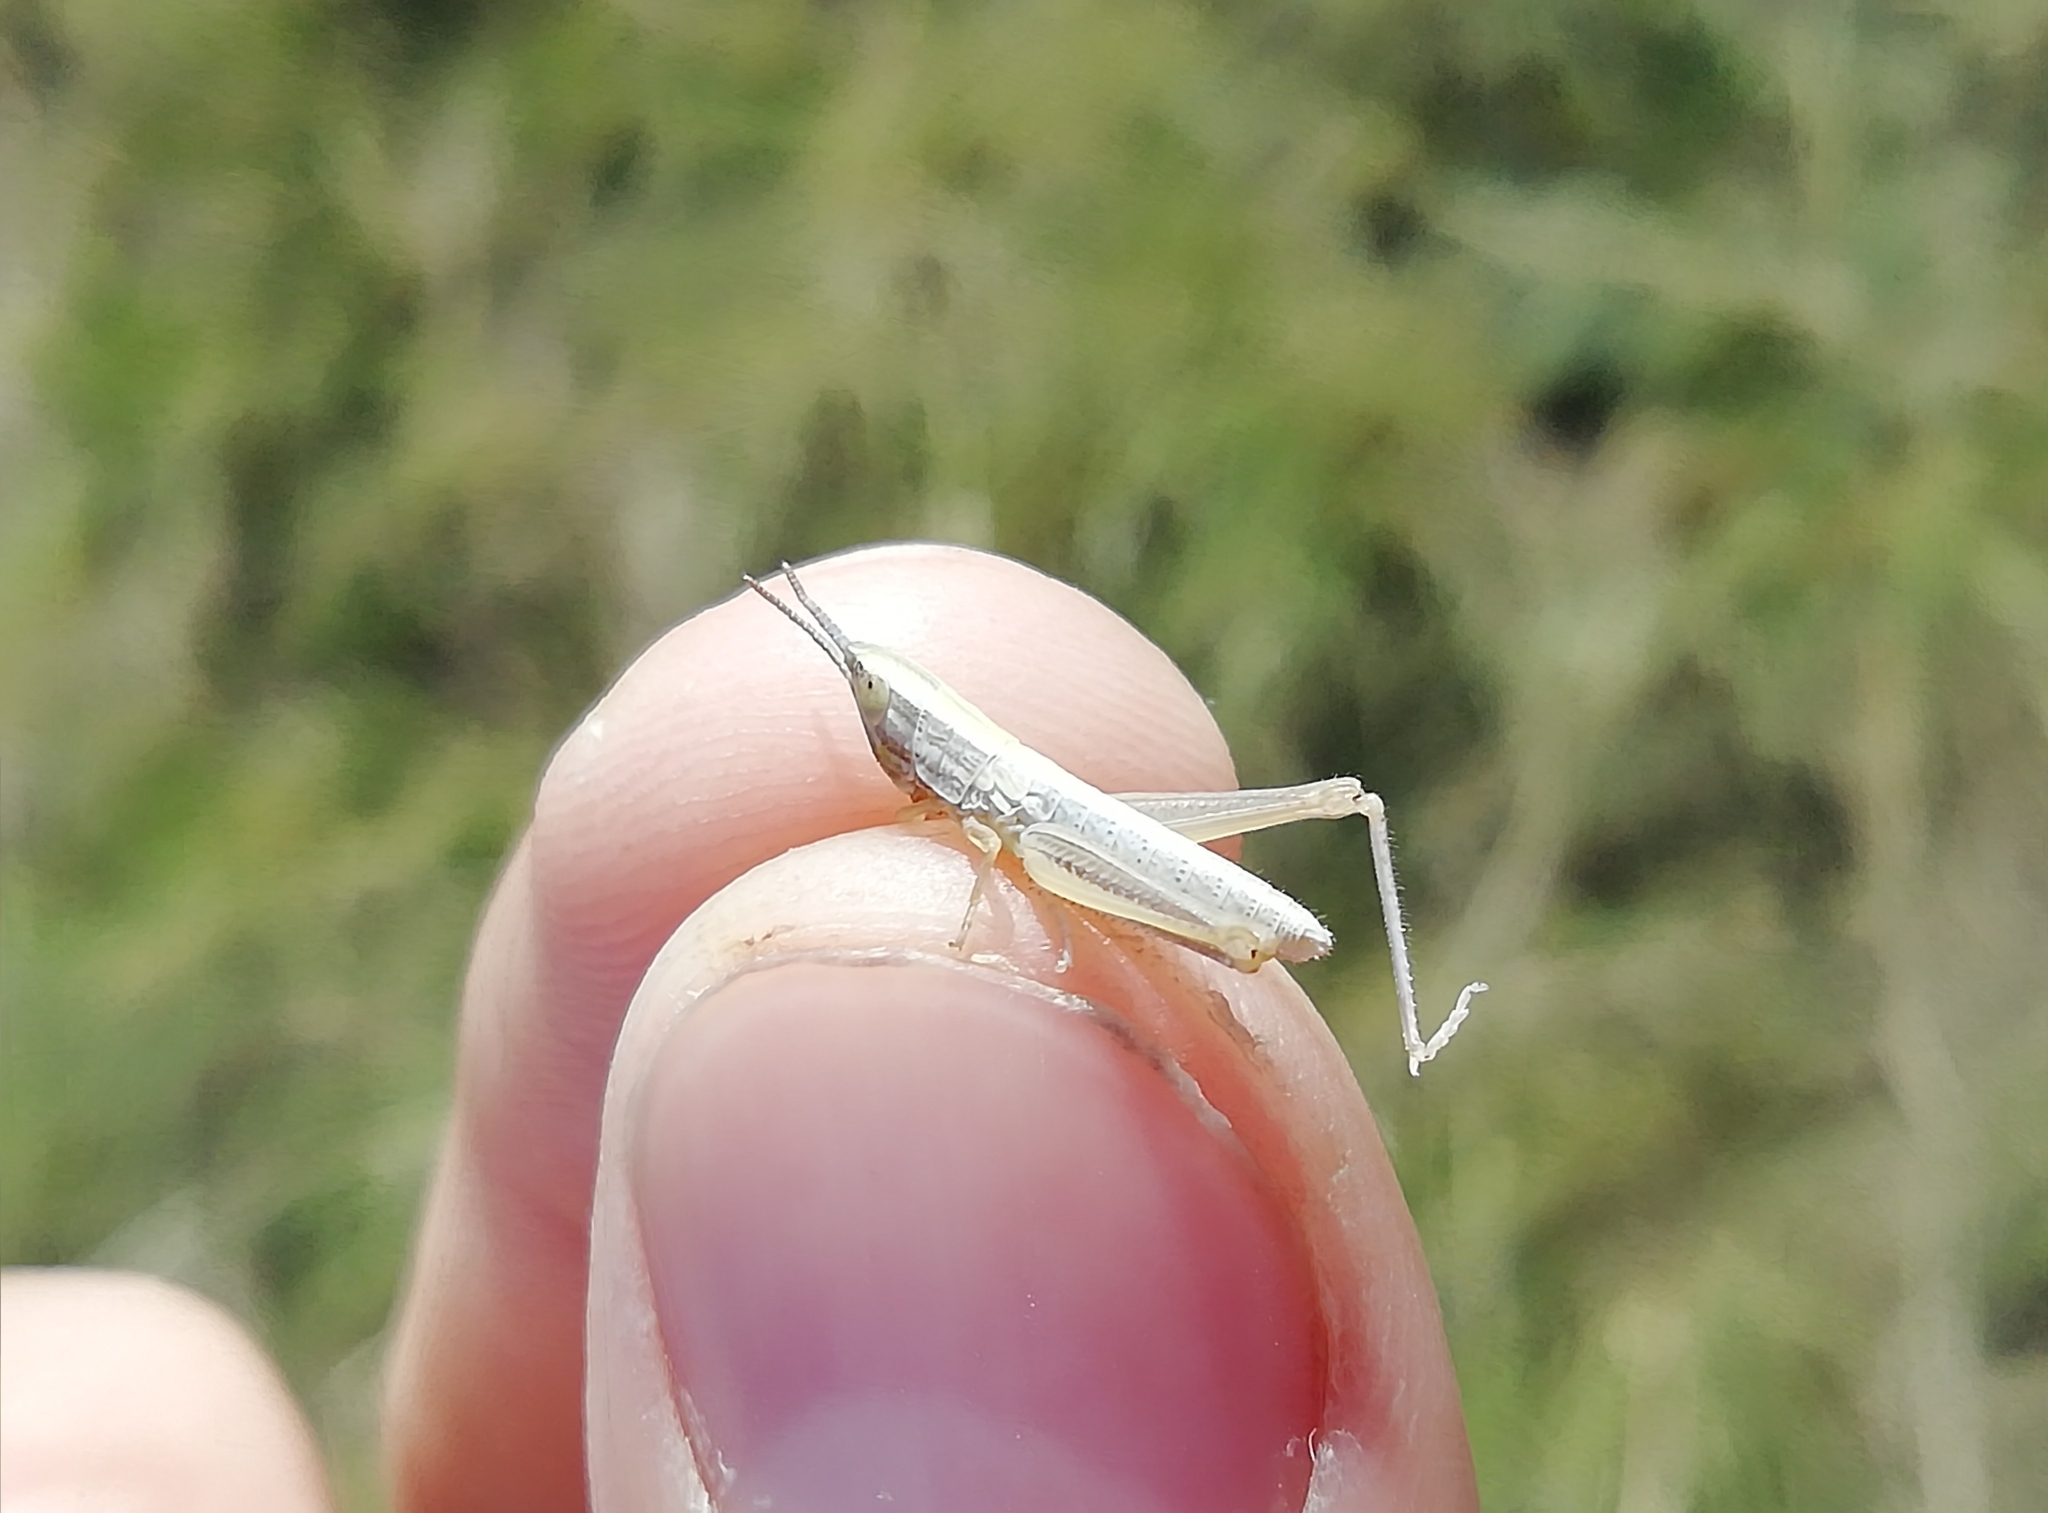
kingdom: Animalia
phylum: Arthropoda
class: Insecta
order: Orthoptera
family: Acrididae
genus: Euchorthippus
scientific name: Euchorthippus pulvinatus
